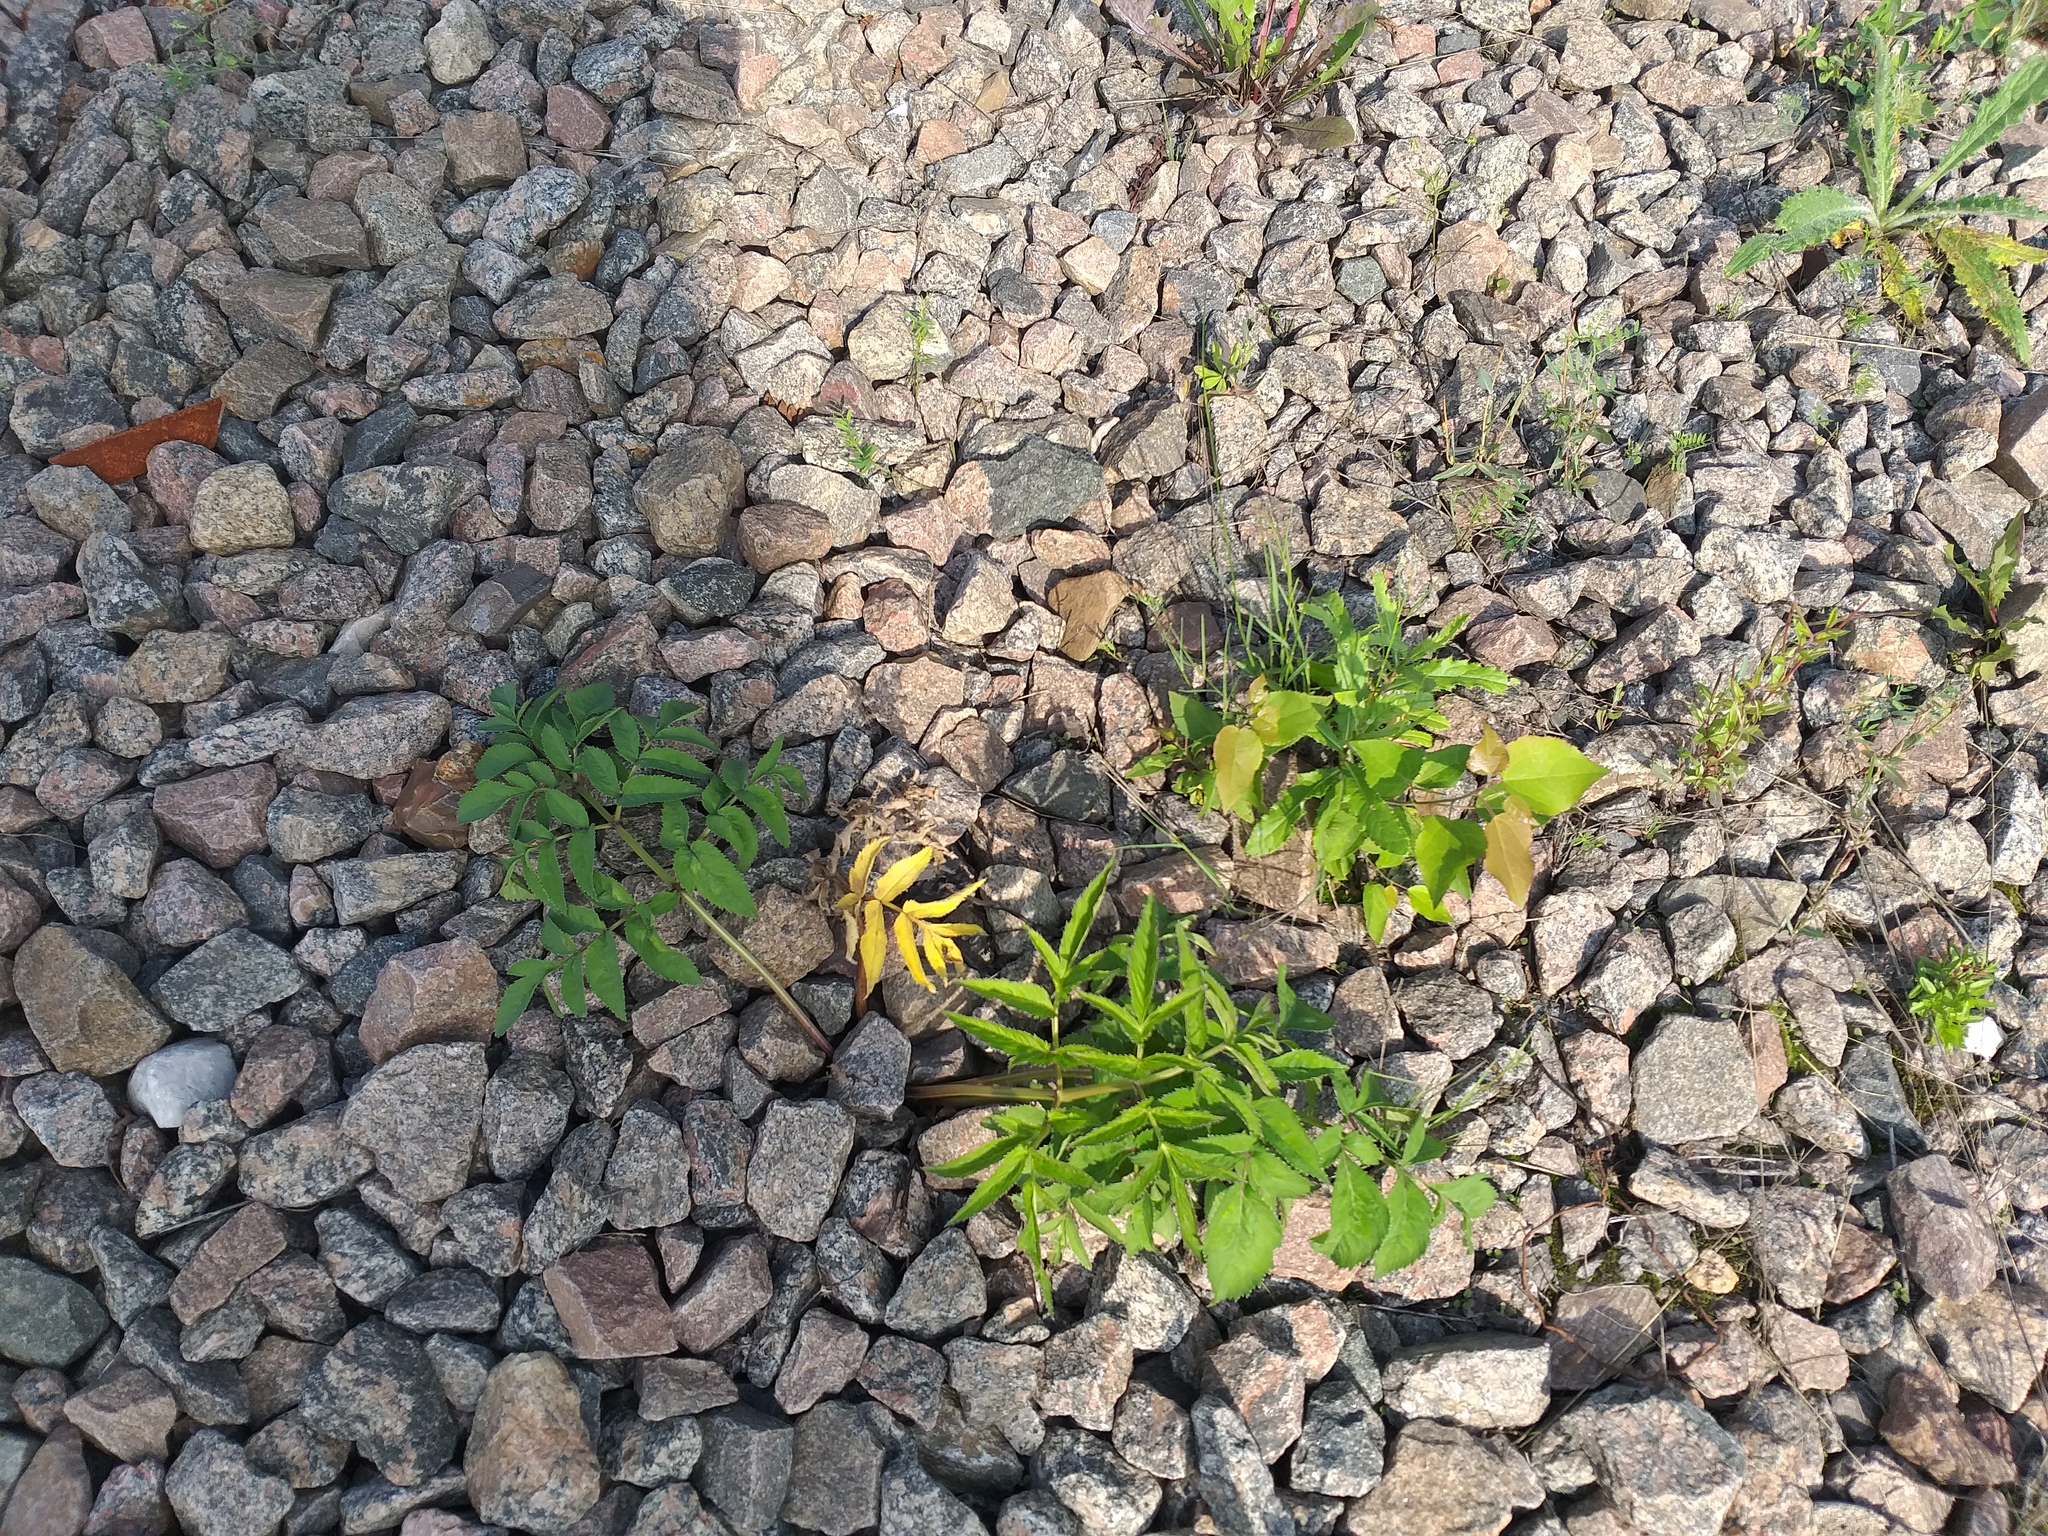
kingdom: Plantae
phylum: Tracheophyta
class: Magnoliopsida
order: Apiales
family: Apiaceae
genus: Angelica
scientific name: Angelica sylvestris
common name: Wild angelica
